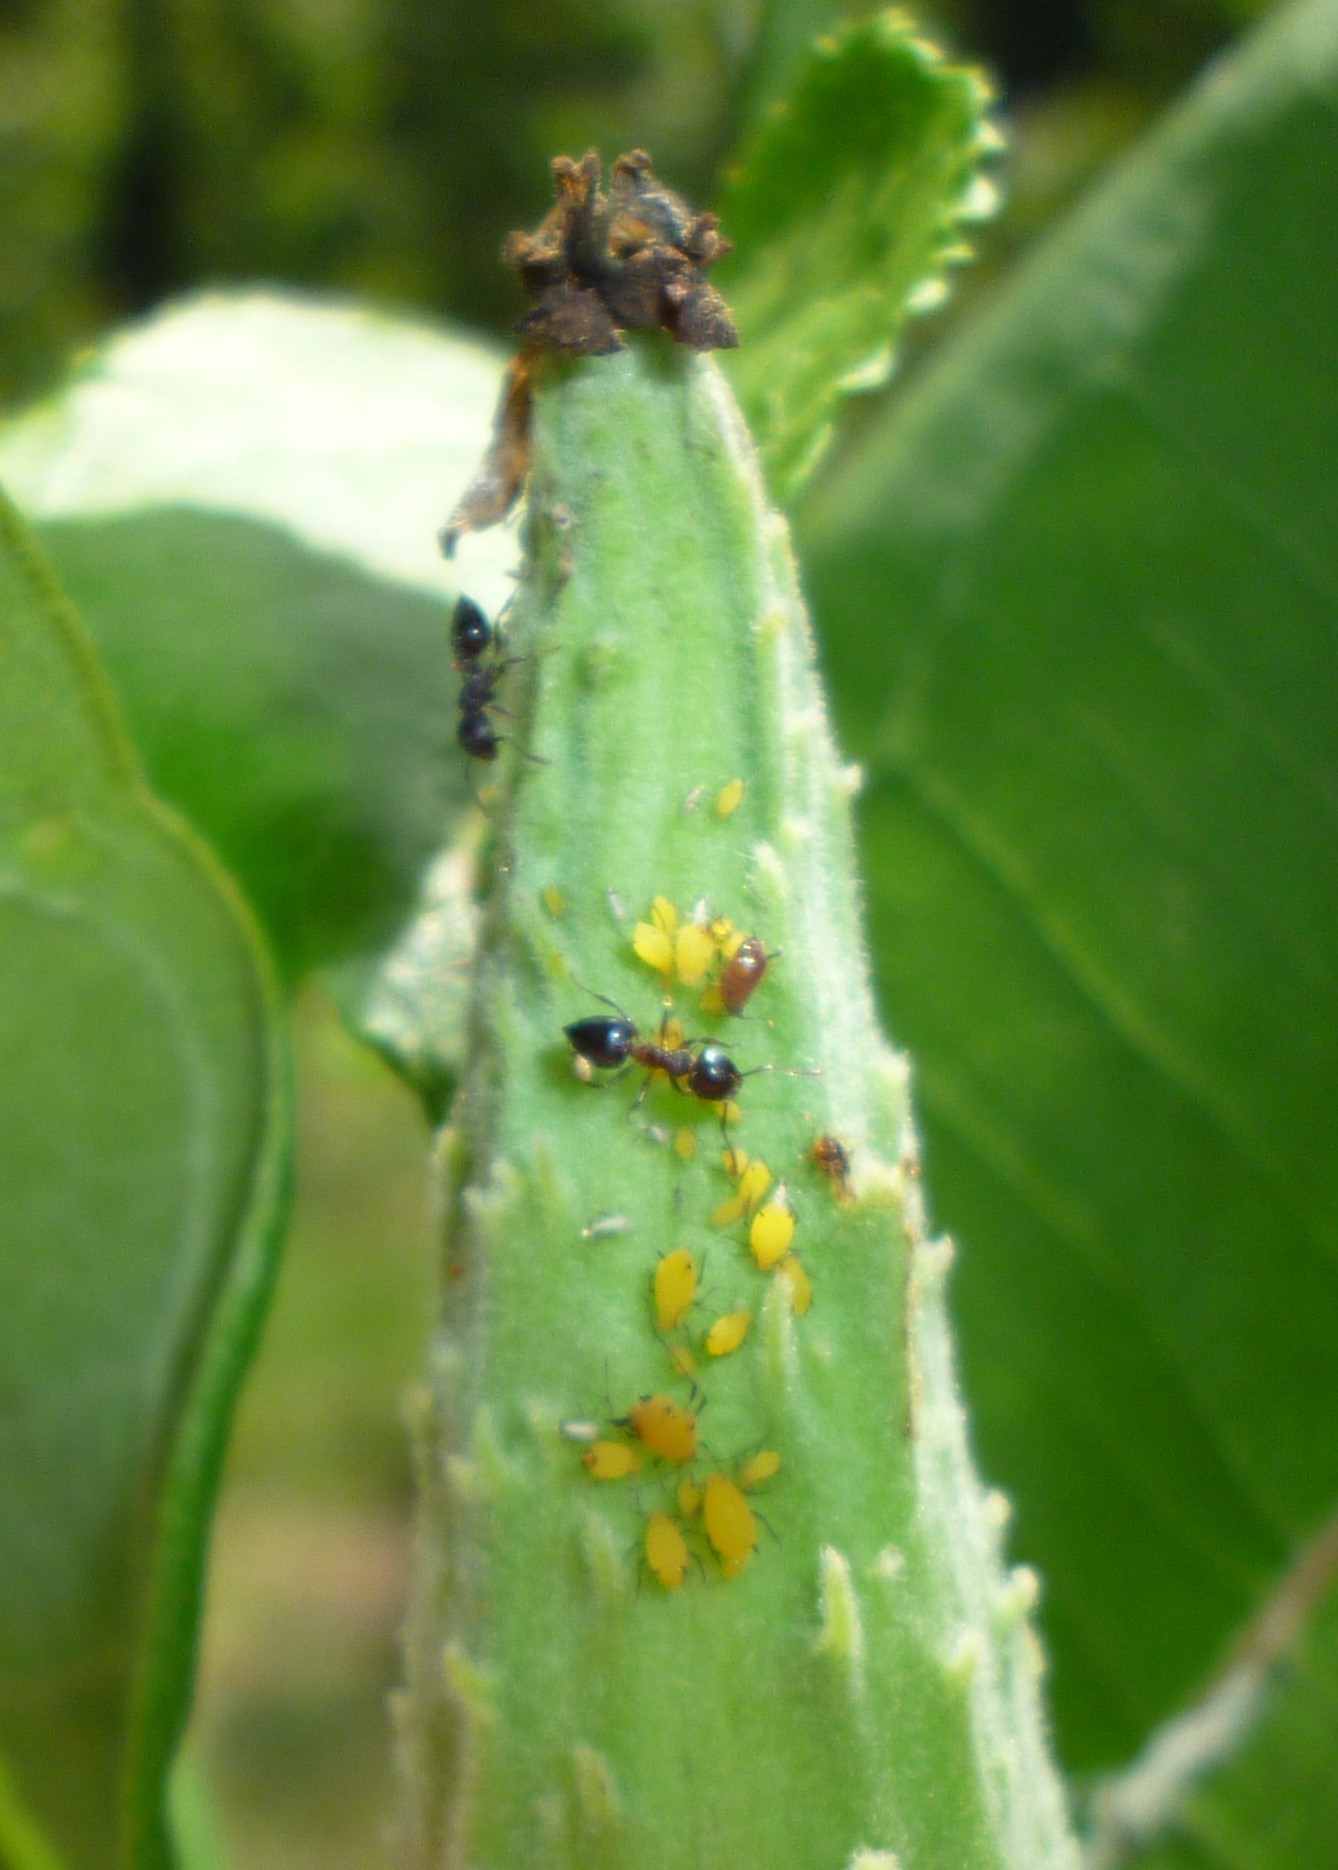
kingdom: Animalia
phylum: Arthropoda
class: Insecta
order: Hemiptera
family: Aphididae
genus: Aphis
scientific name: Aphis nerii
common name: Oleander aphid
